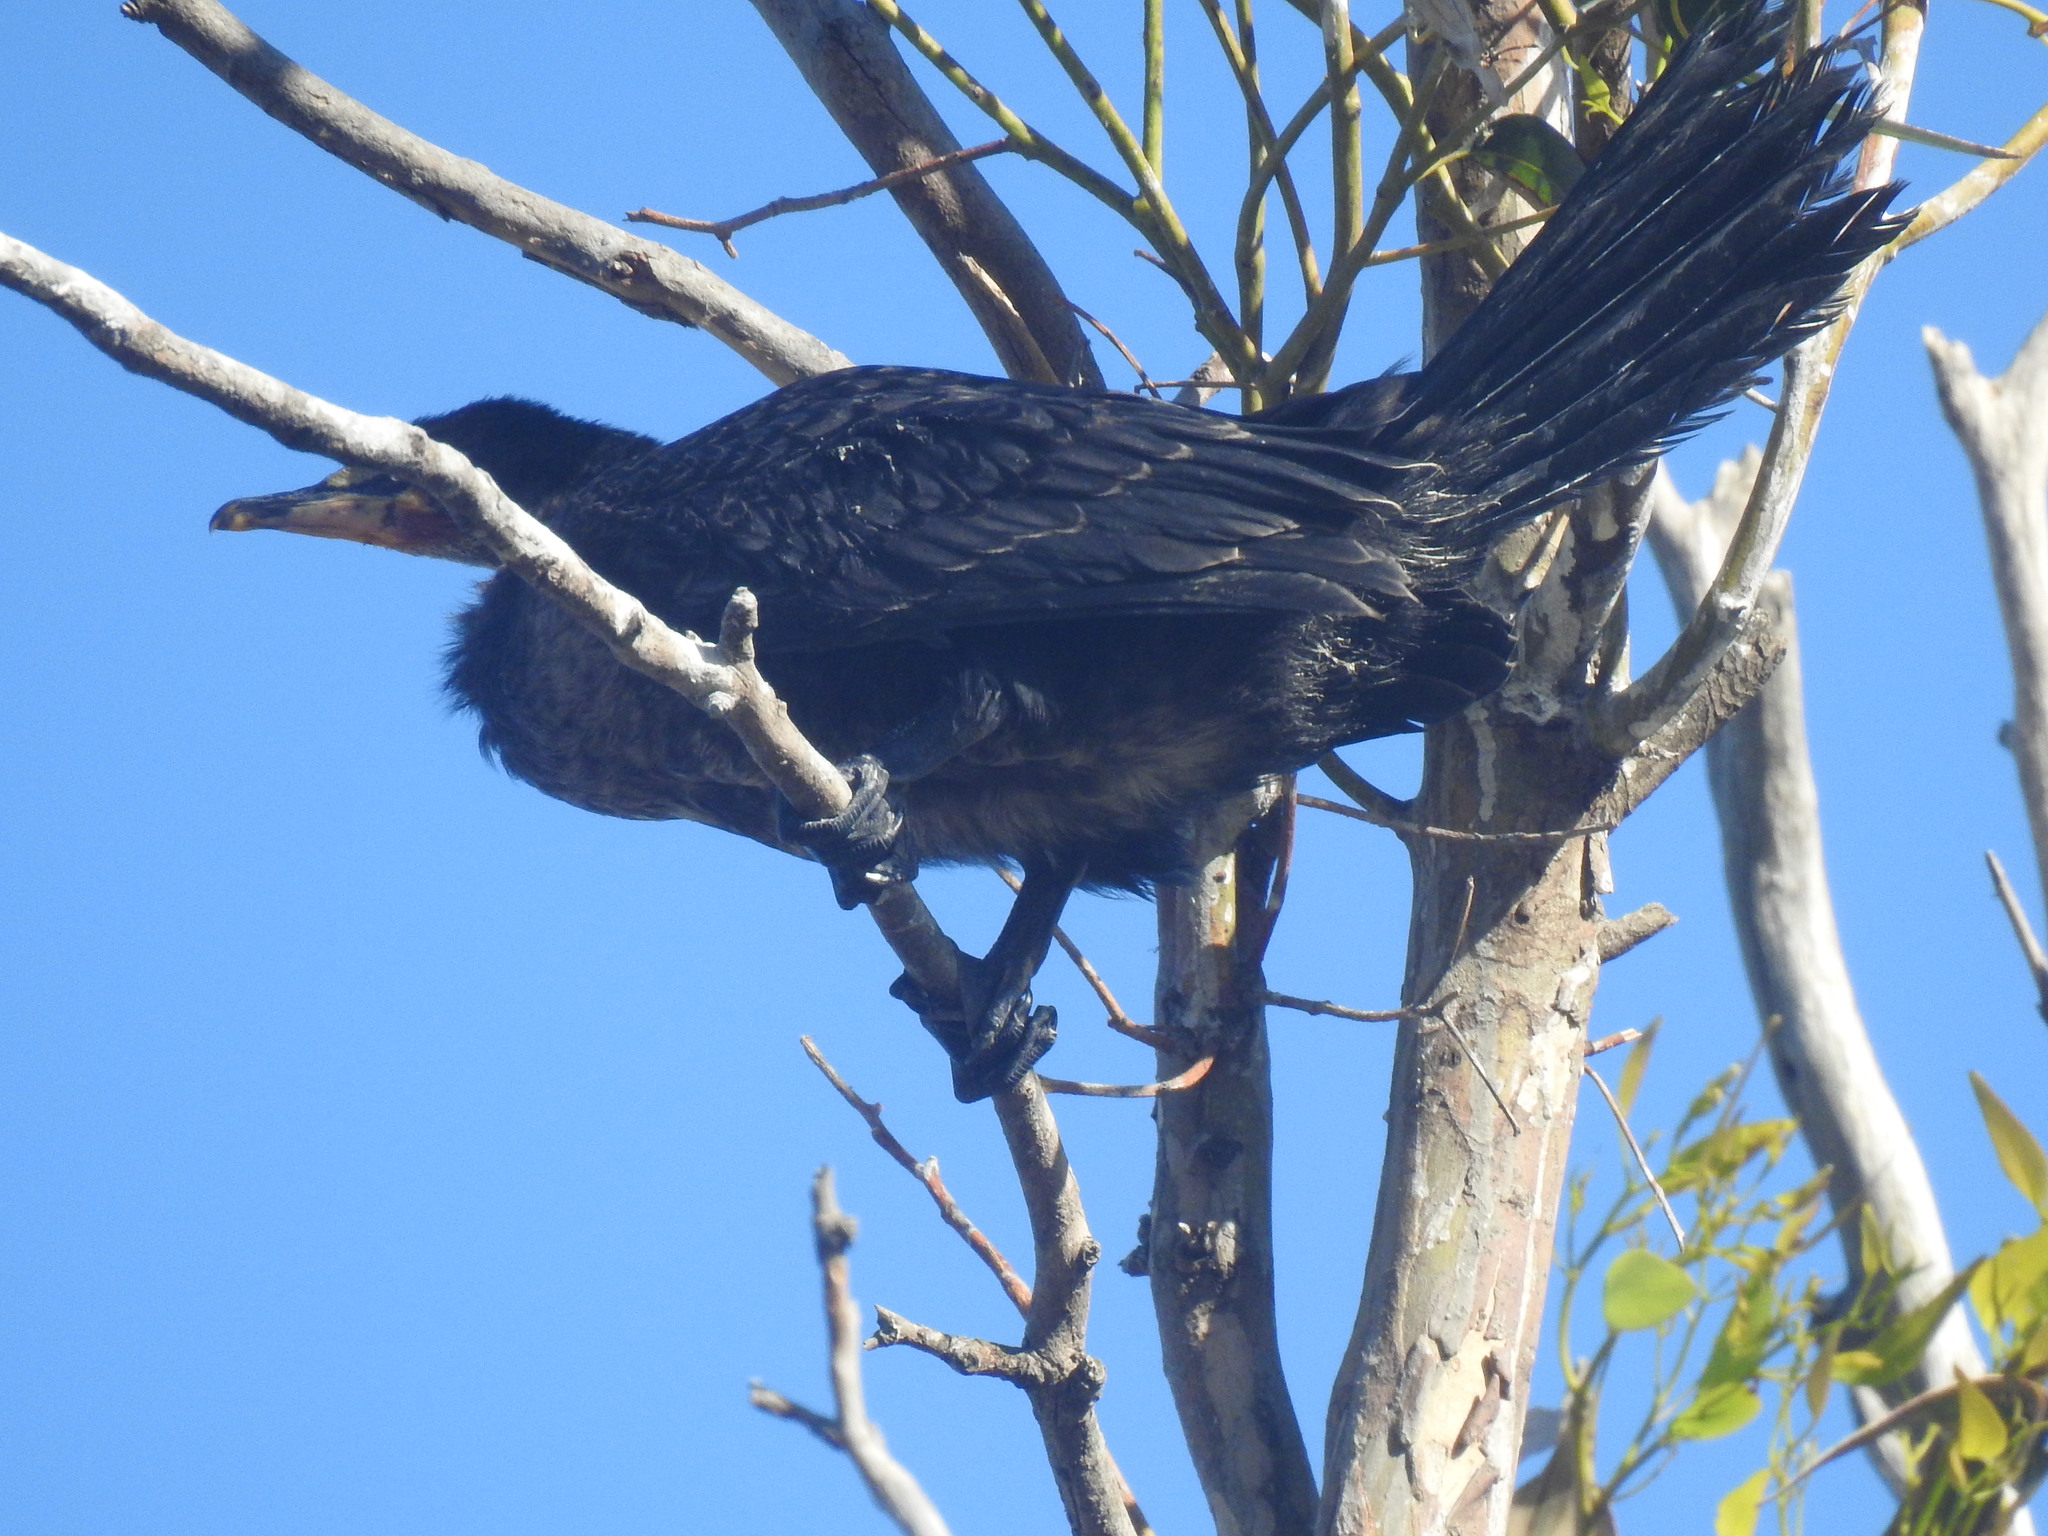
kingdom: Animalia
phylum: Chordata
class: Aves
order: Suliformes
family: Phalacrocoracidae
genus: Microcarbo
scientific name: Microcarbo africanus
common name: Long-tailed cormorant
